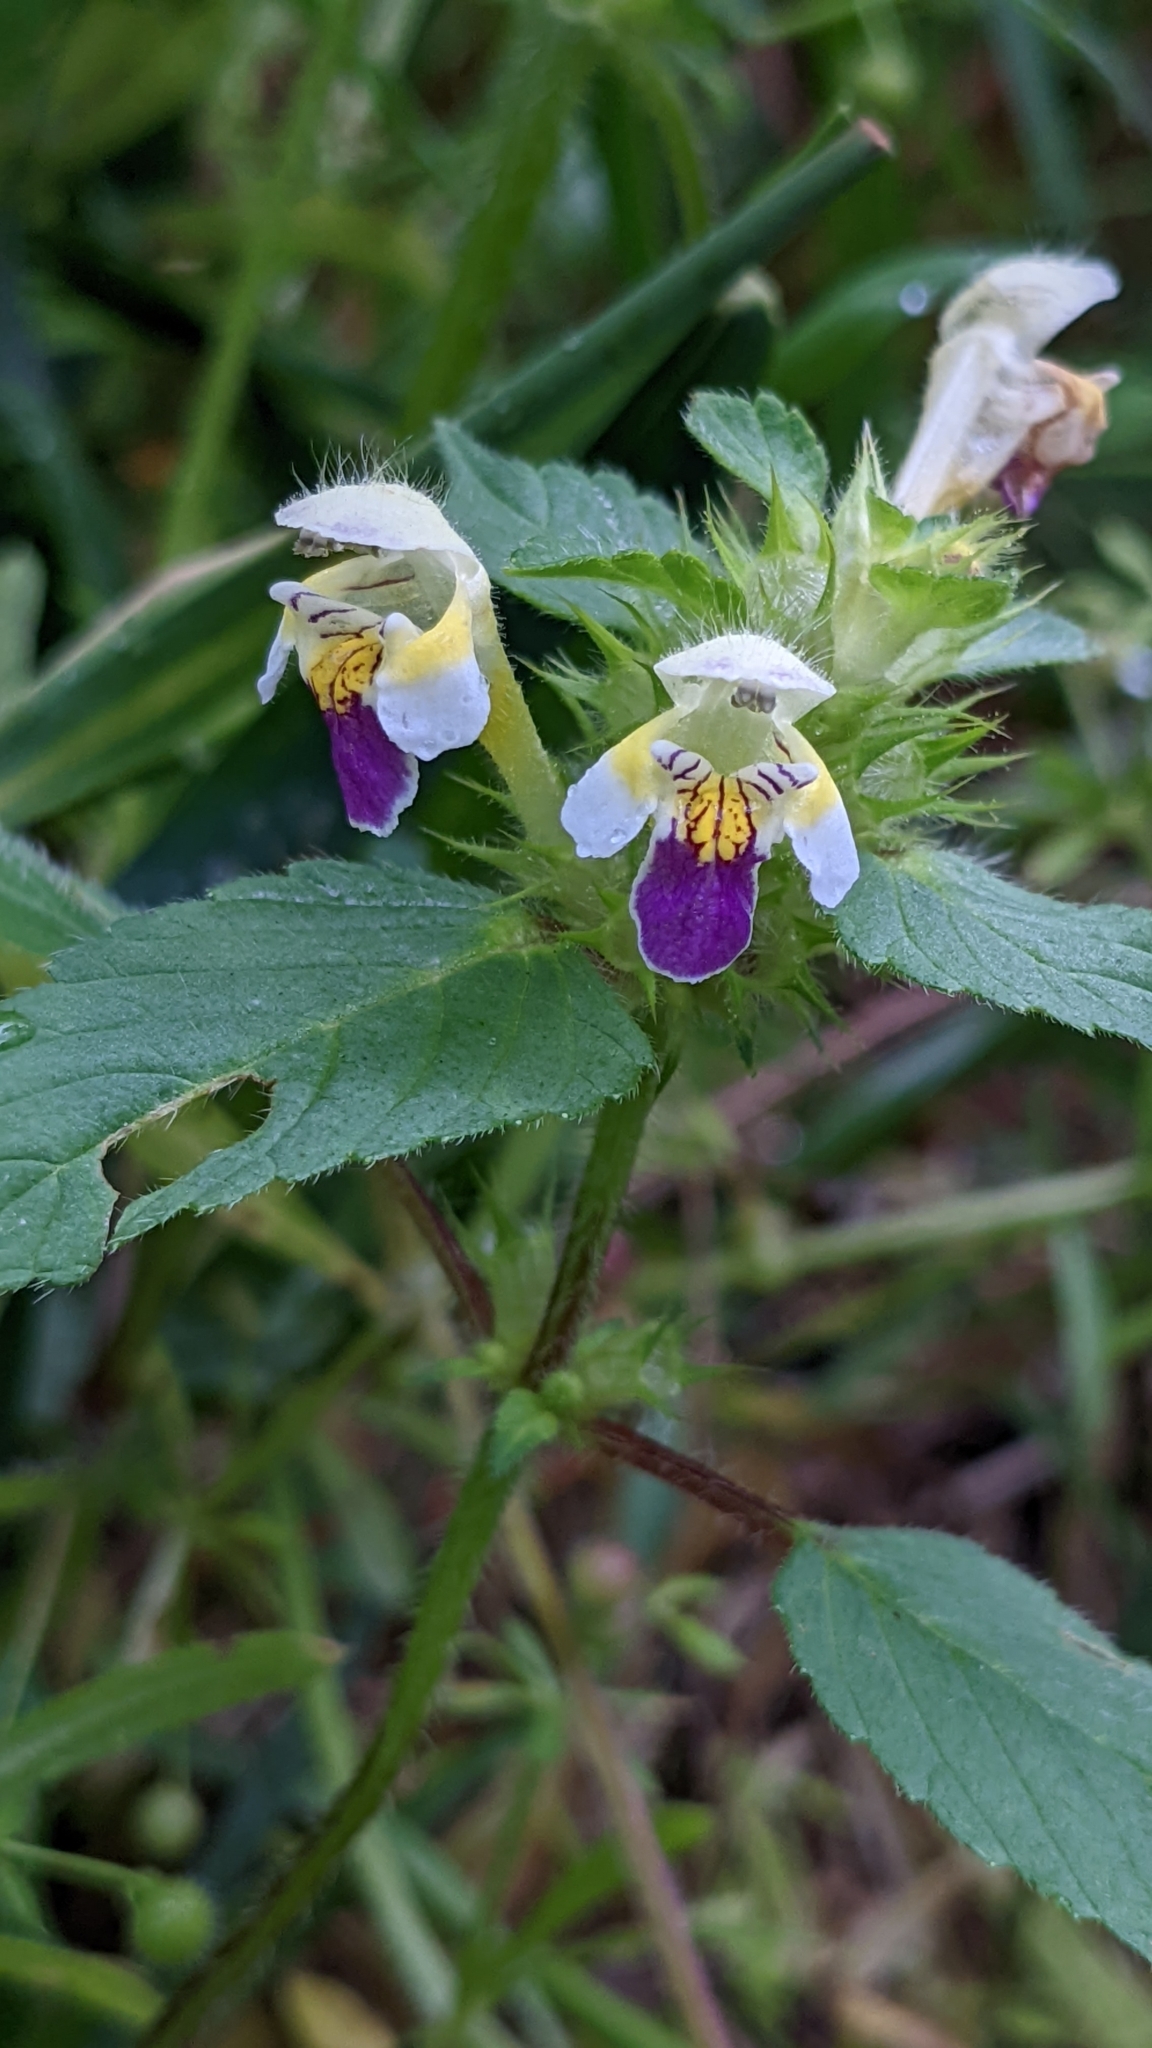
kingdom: Plantae
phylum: Tracheophyta
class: Magnoliopsida
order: Lamiales
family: Lamiaceae
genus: Galeopsis
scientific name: Galeopsis speciosa
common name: Large-flowered hemp-nettle
